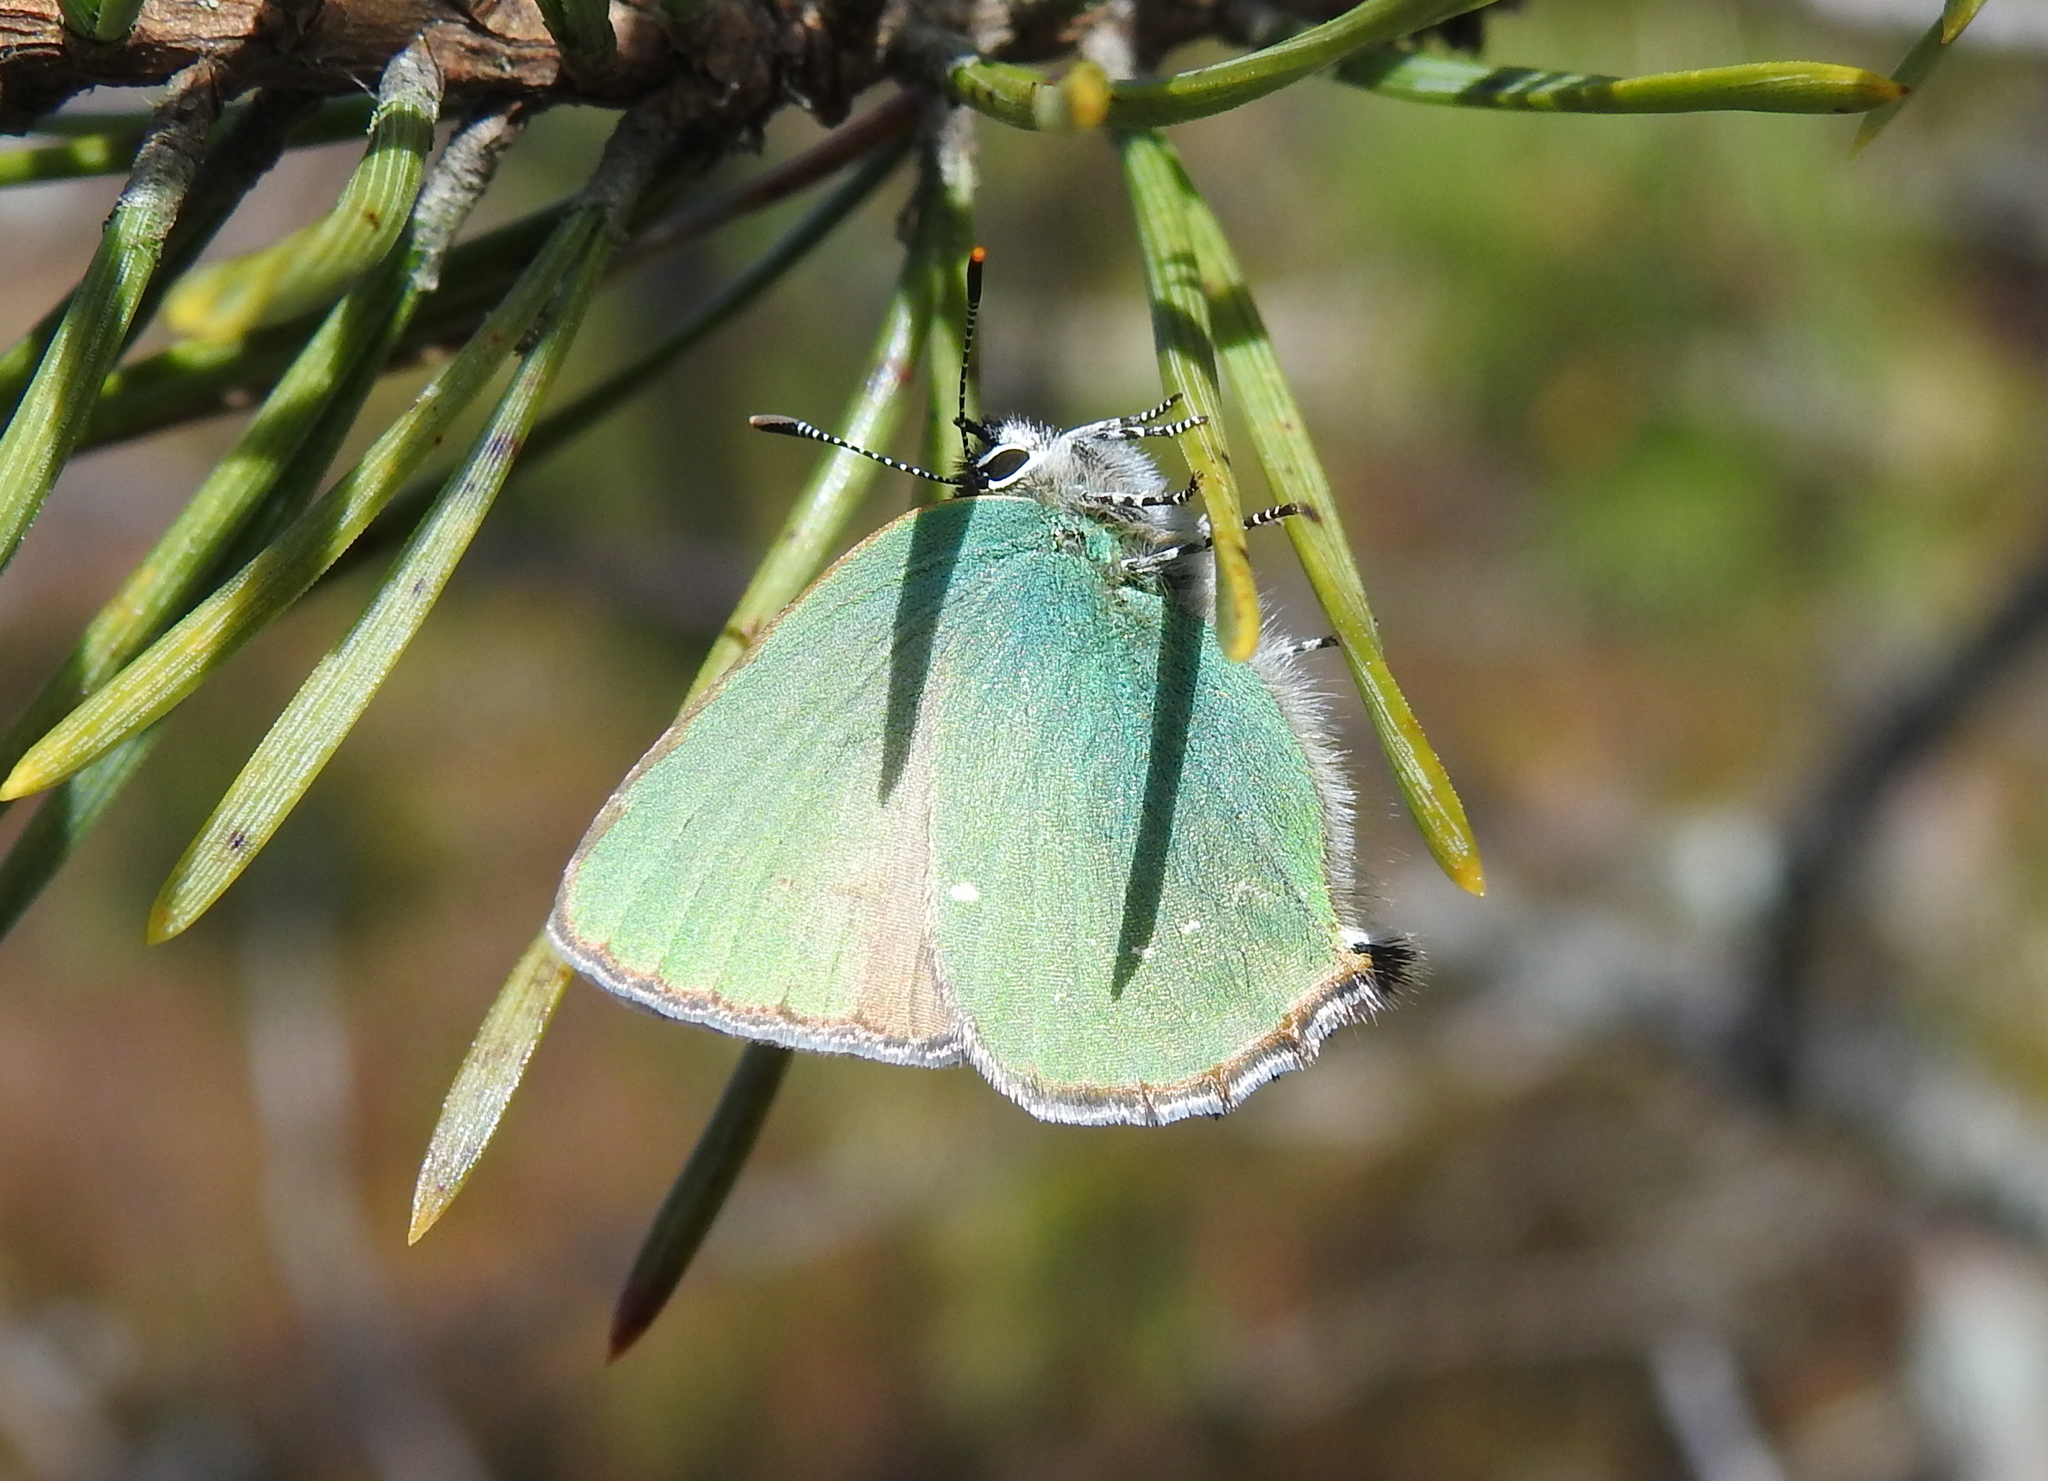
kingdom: Animalia
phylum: Arthropoda
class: Insecta
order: Lepidoptera
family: Lycaenidae
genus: Callophrys
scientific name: Callophrys rubi
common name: Green hairstreak
